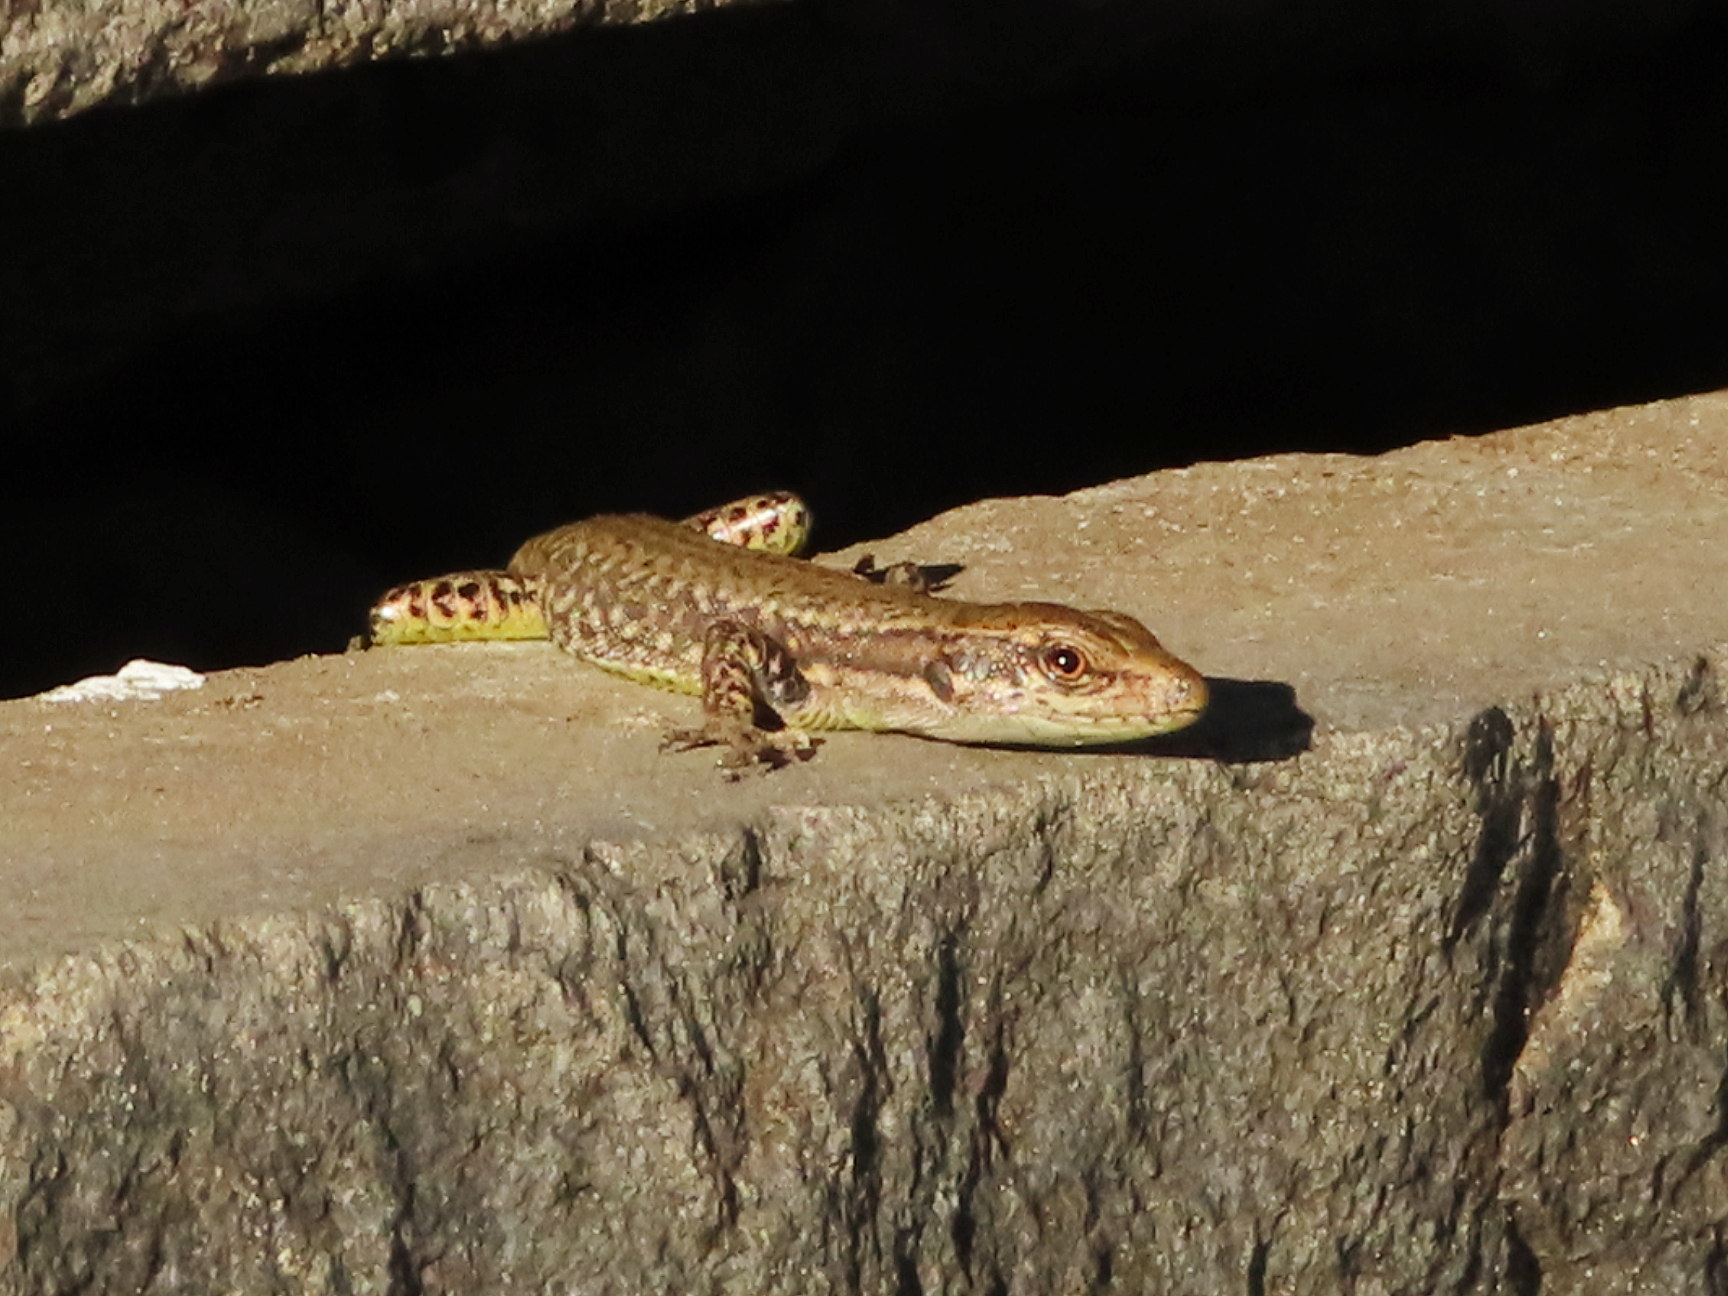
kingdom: Animalia
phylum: Chordata
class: Squamata
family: Lacertidae
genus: Darevskia
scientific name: Darevskia mixta
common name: Ajarian lizard
